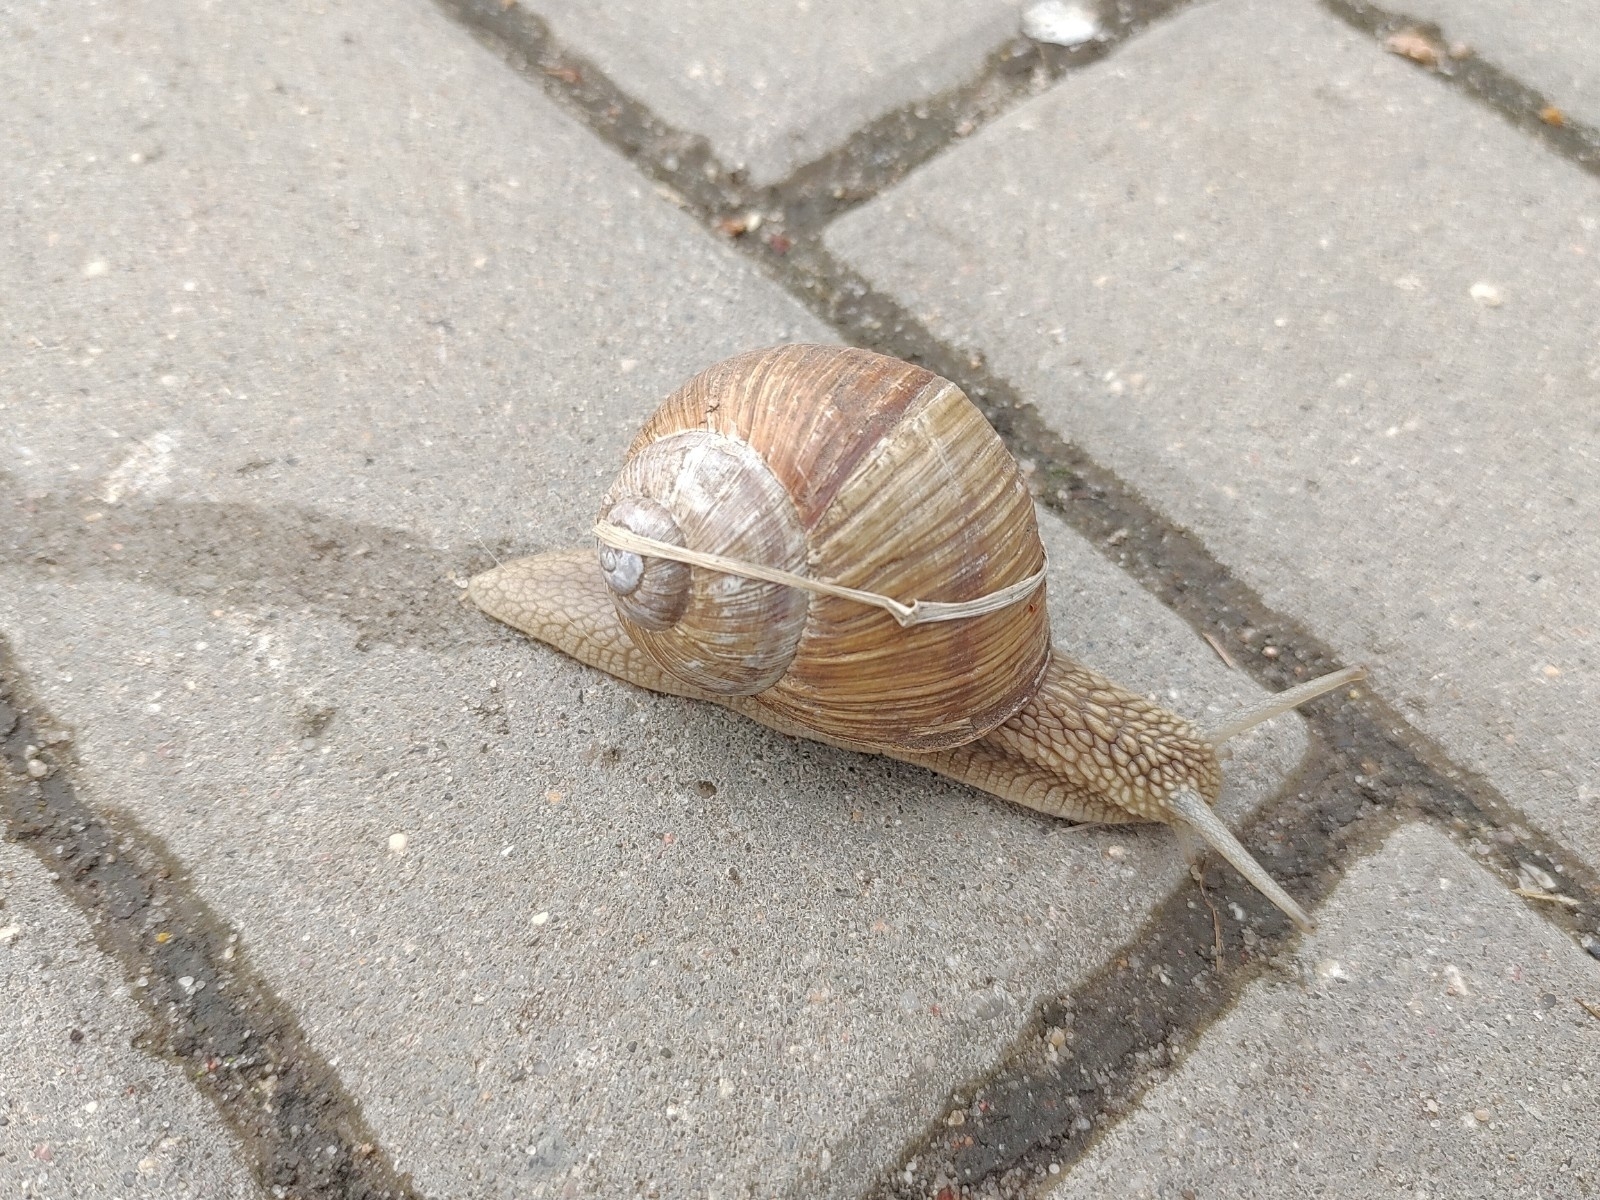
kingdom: Animalia
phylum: Mollusca
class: Gastropoda
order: Stylommatophora
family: Helicidae
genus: Helix
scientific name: Helix pomatia
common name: Roman snail
